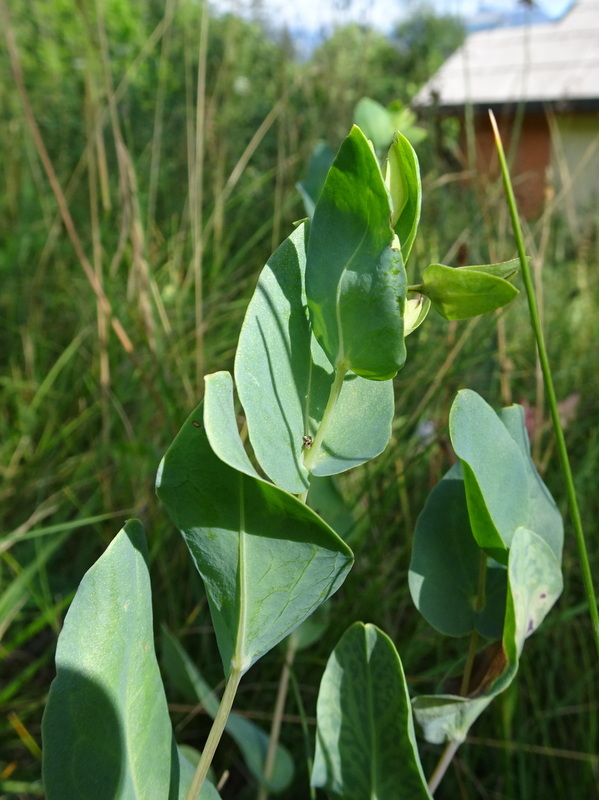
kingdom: Plantae
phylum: Tracheophyta
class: Magnoliopsida
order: Boraginales
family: Boraginaceae
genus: Cerinthe
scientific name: Cerinthe minor
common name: Lesser honeywort
